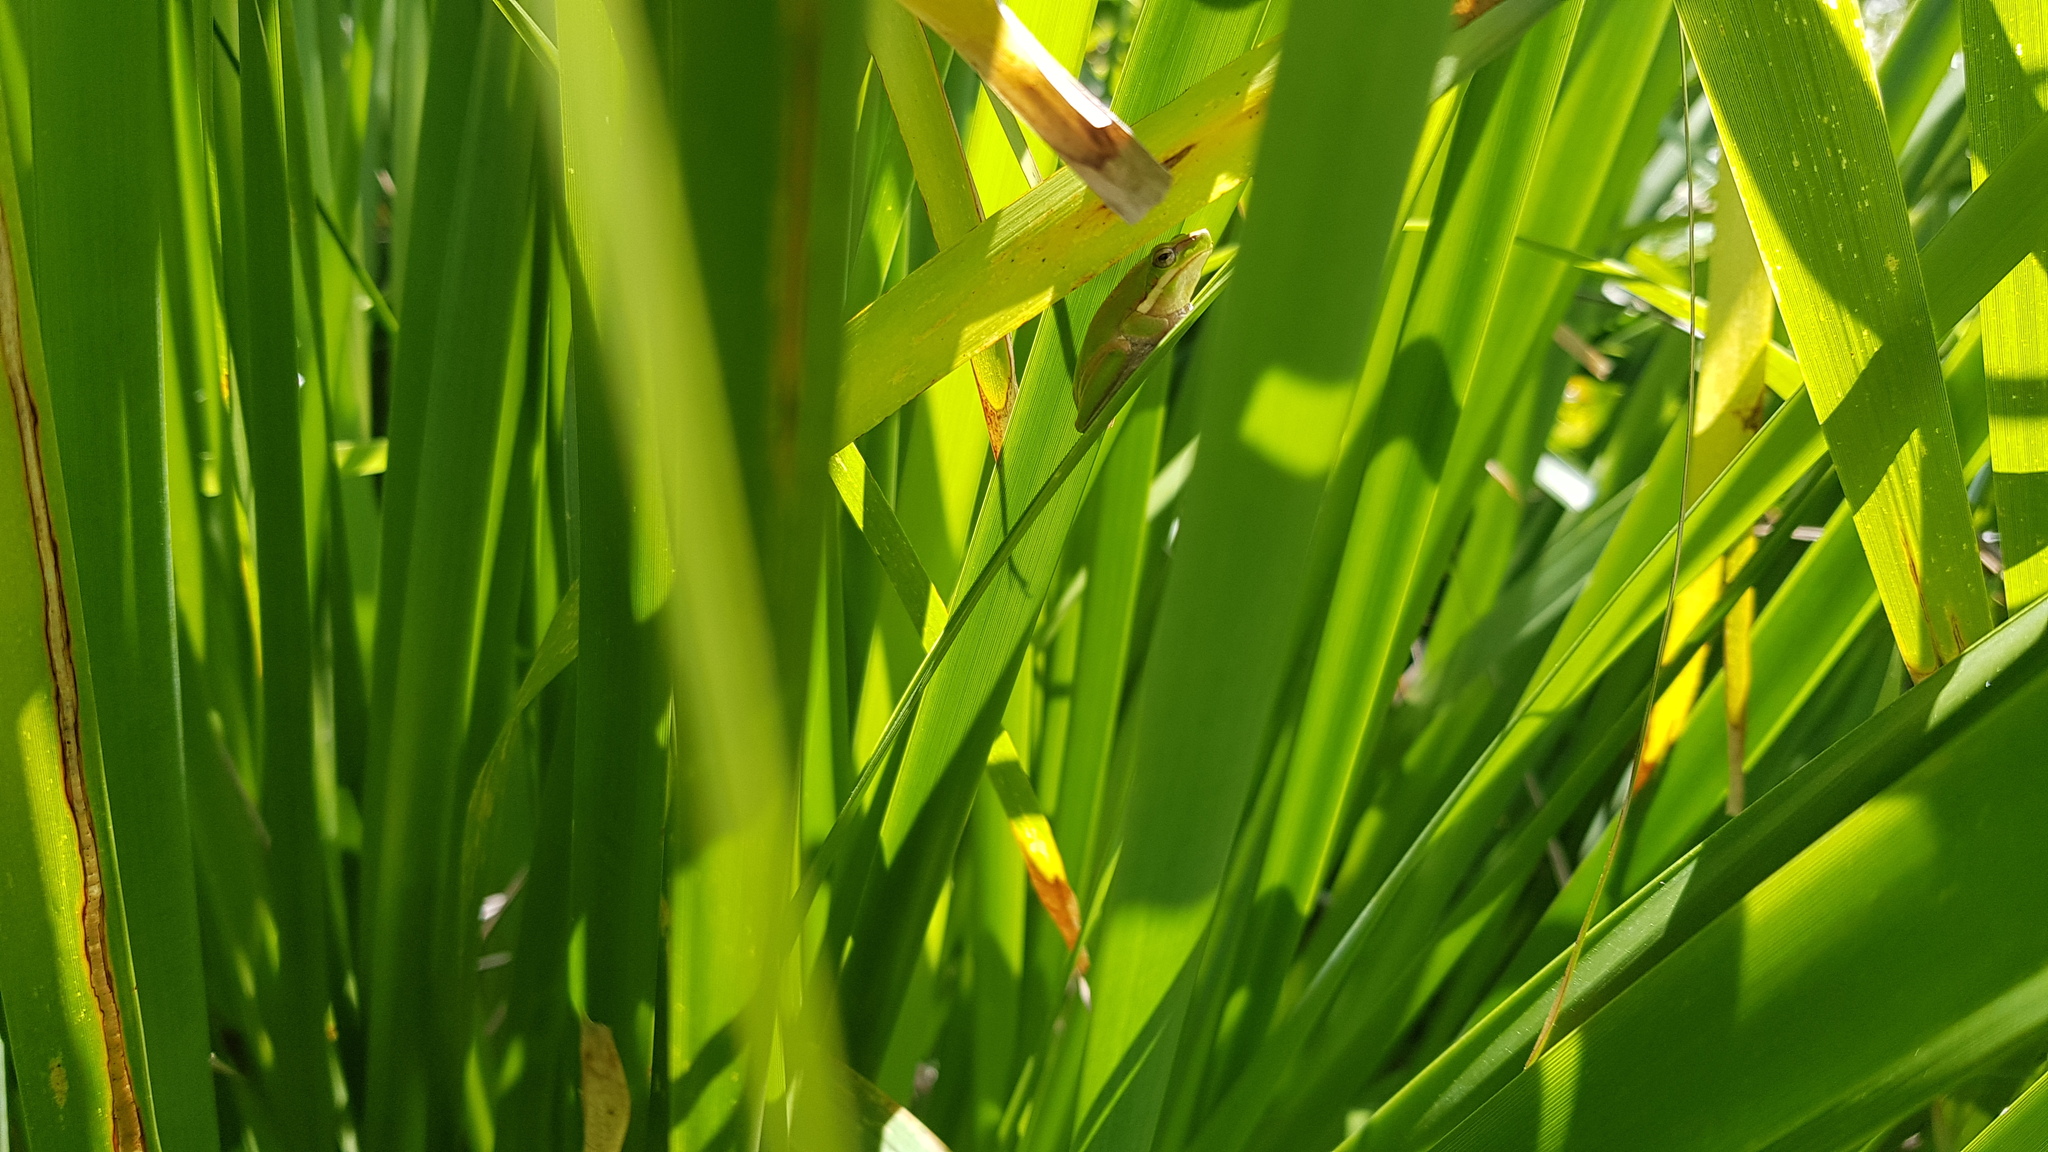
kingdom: Animalia
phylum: Chordata
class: Amphibia
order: Anura
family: Pelodryadidae
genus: Litoria
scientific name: Litoria fallax
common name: Eastern dwarf treefrog
